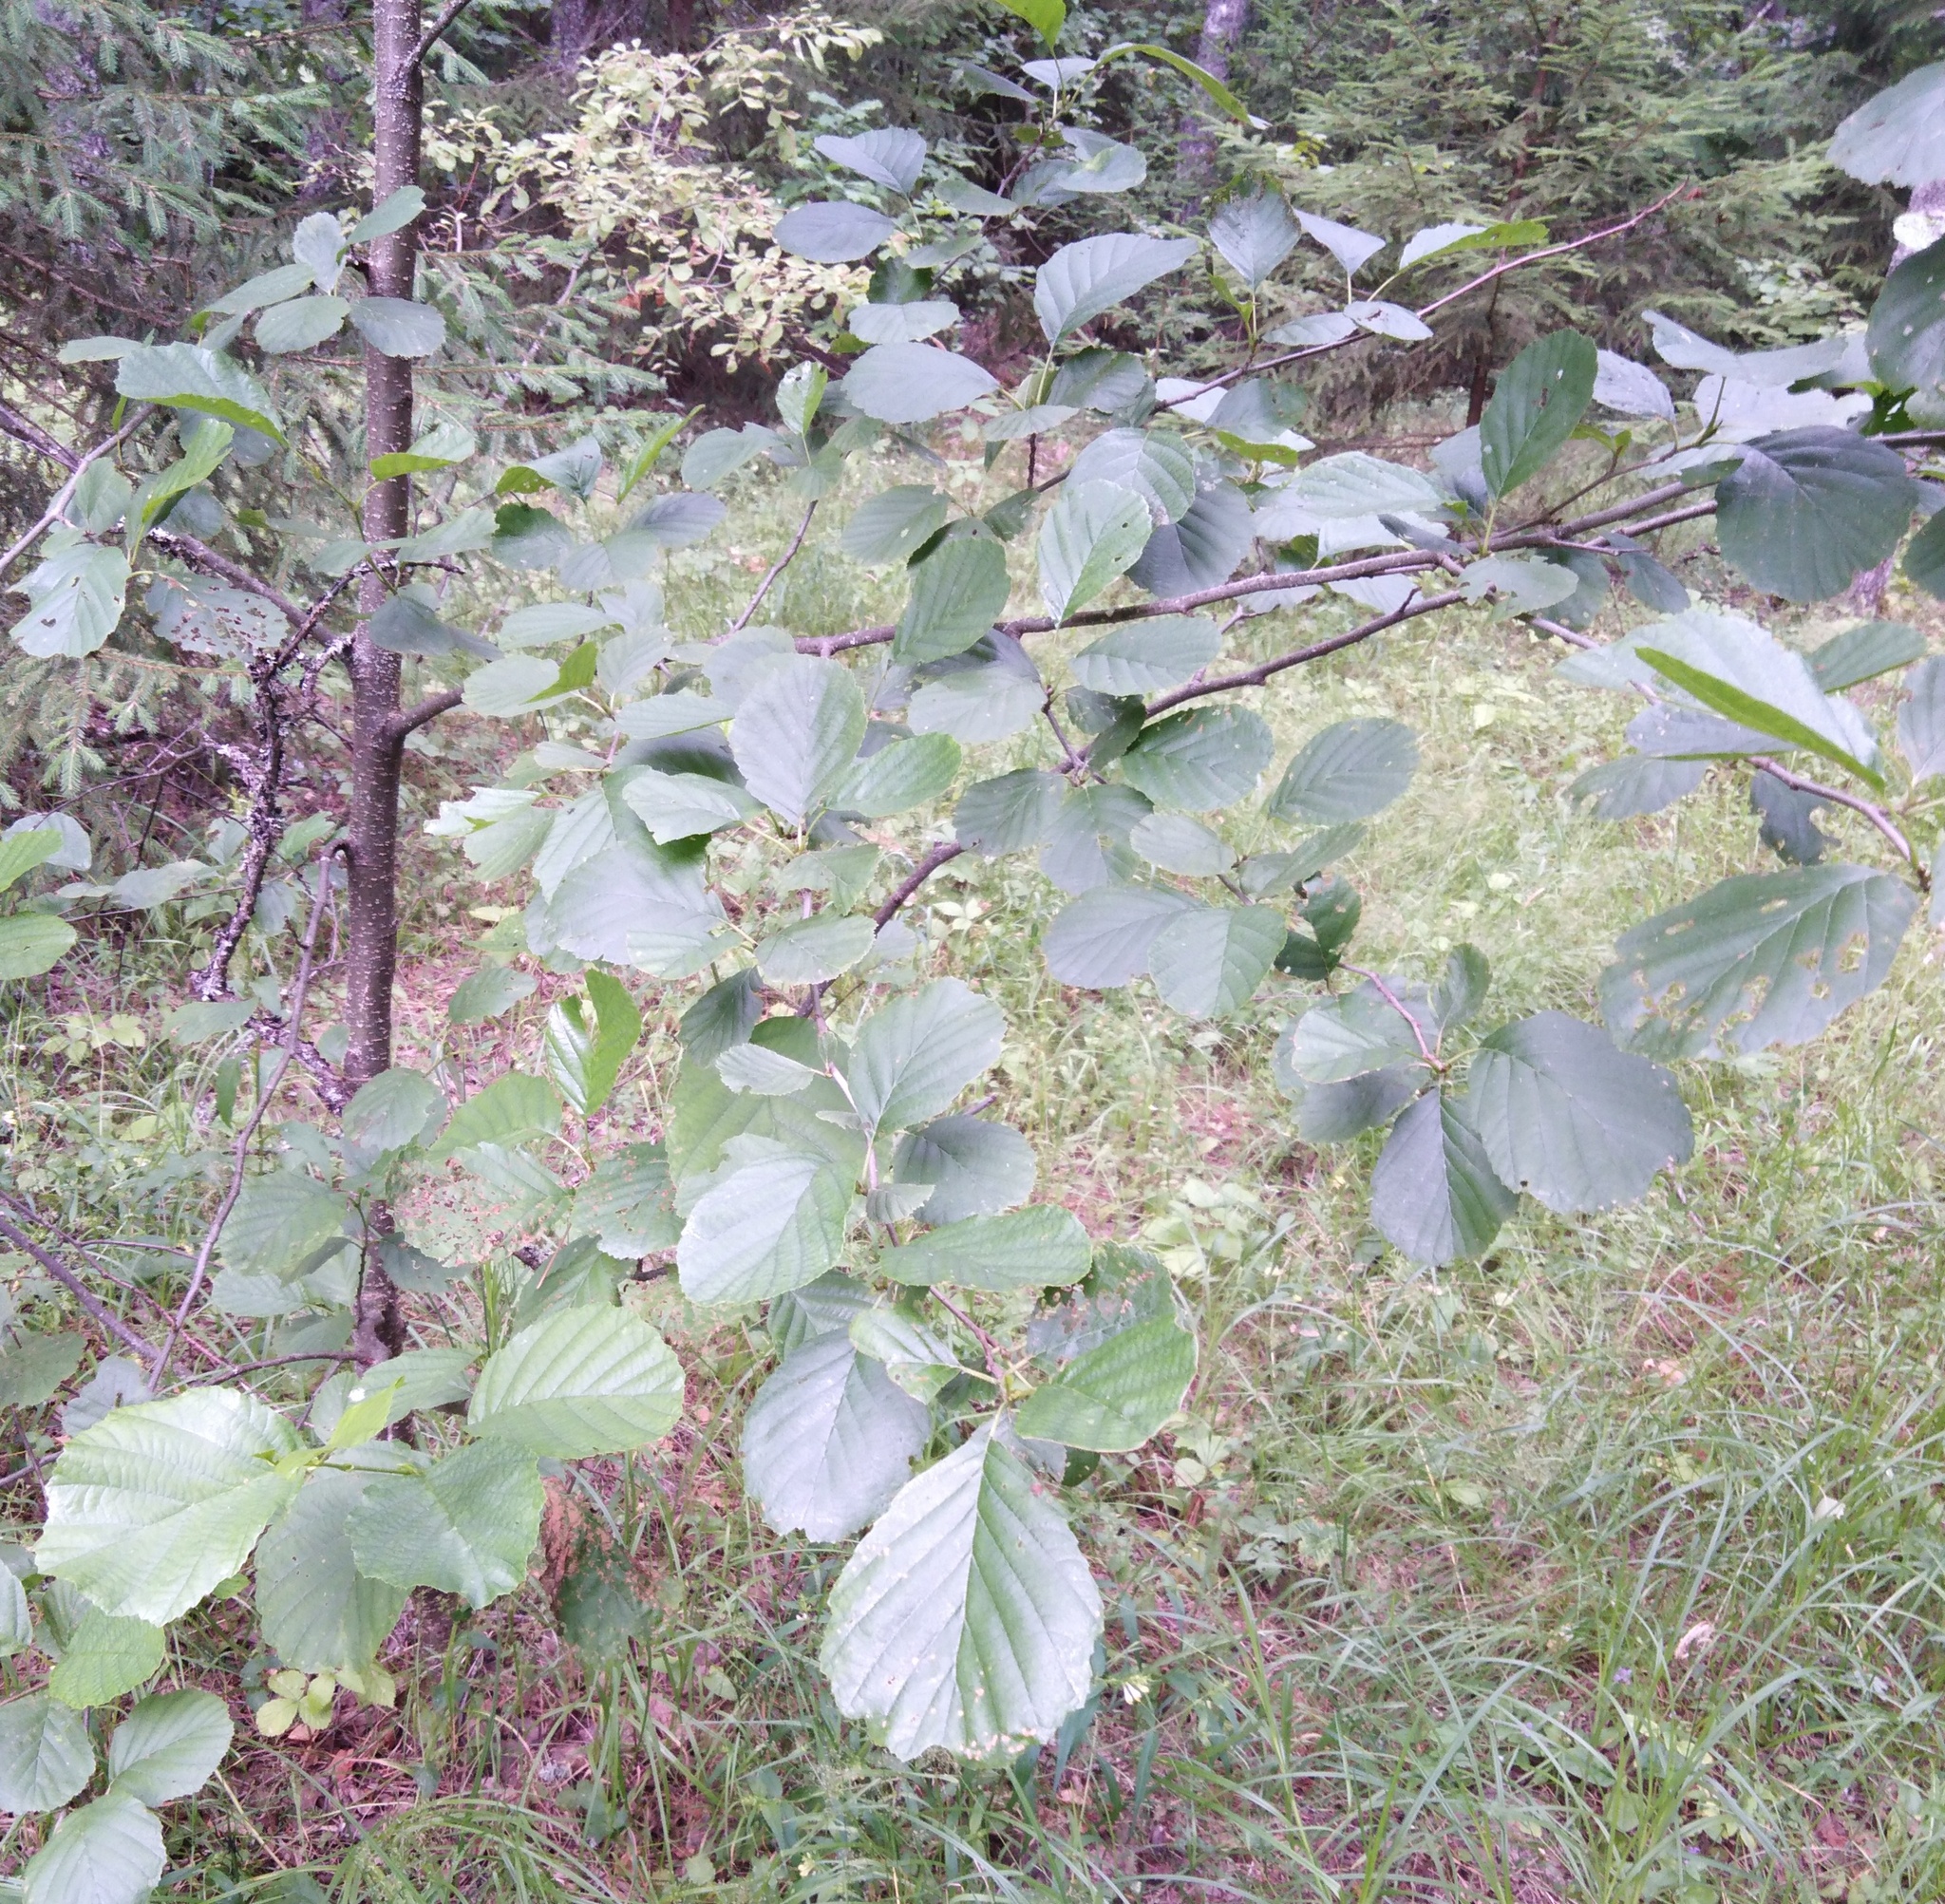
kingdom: Plantae
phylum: Tracheophyta
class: Magnoliopsida
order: Fagales
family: Betulaceae
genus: Alnus
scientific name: Alnus glutinosa
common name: Black alder
